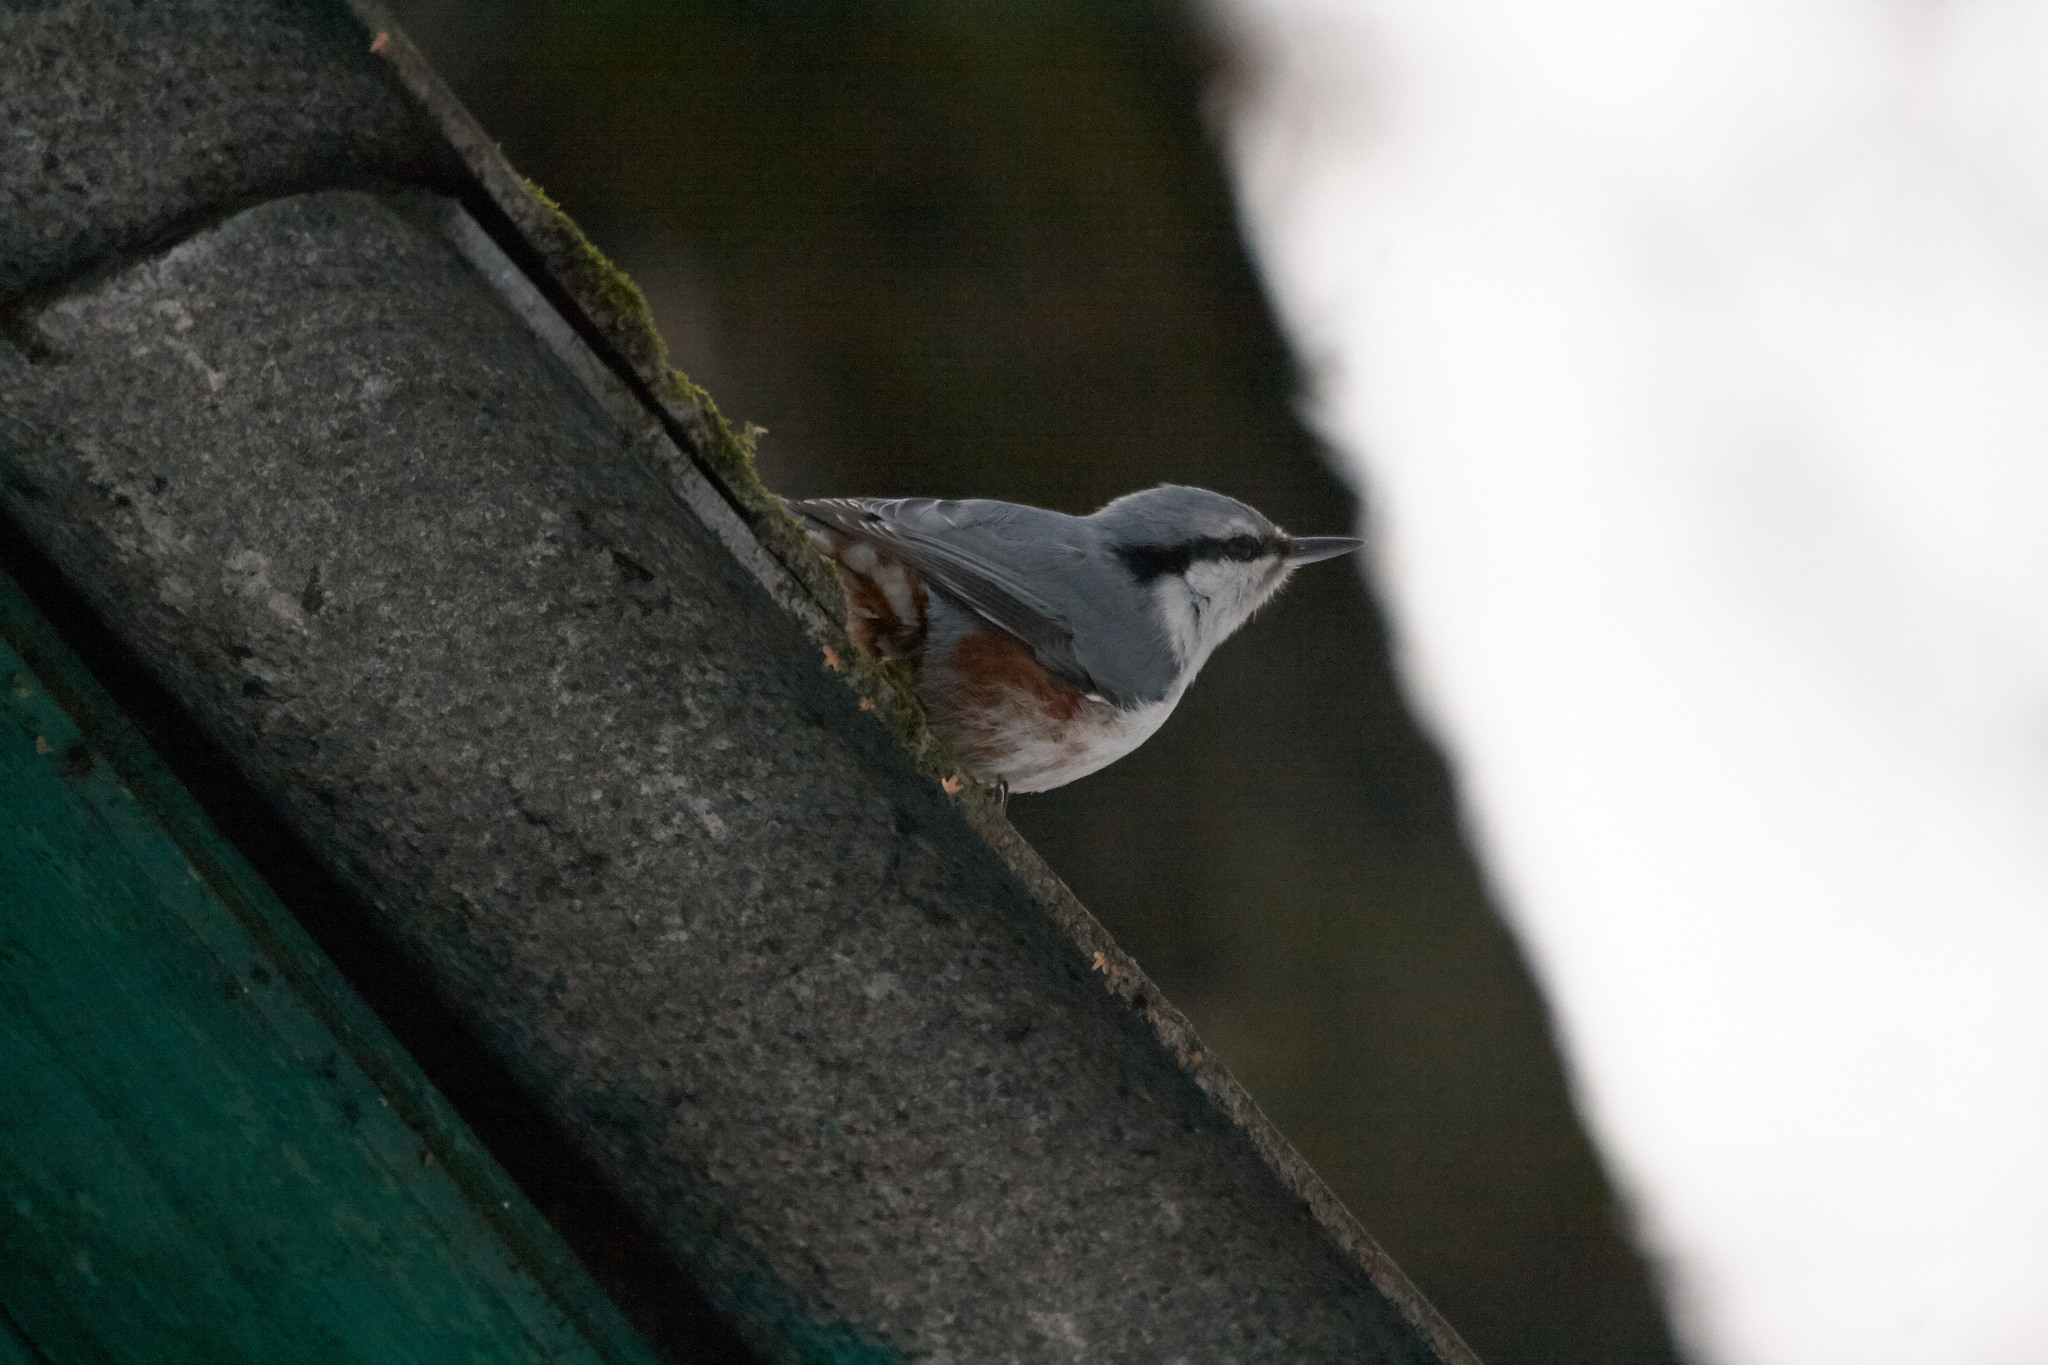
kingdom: Animalia
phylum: Chordata
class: Aves
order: Passeriformes
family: Sittidae
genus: Sitta
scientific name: Sitta europaea
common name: Eurasian nuthatch
